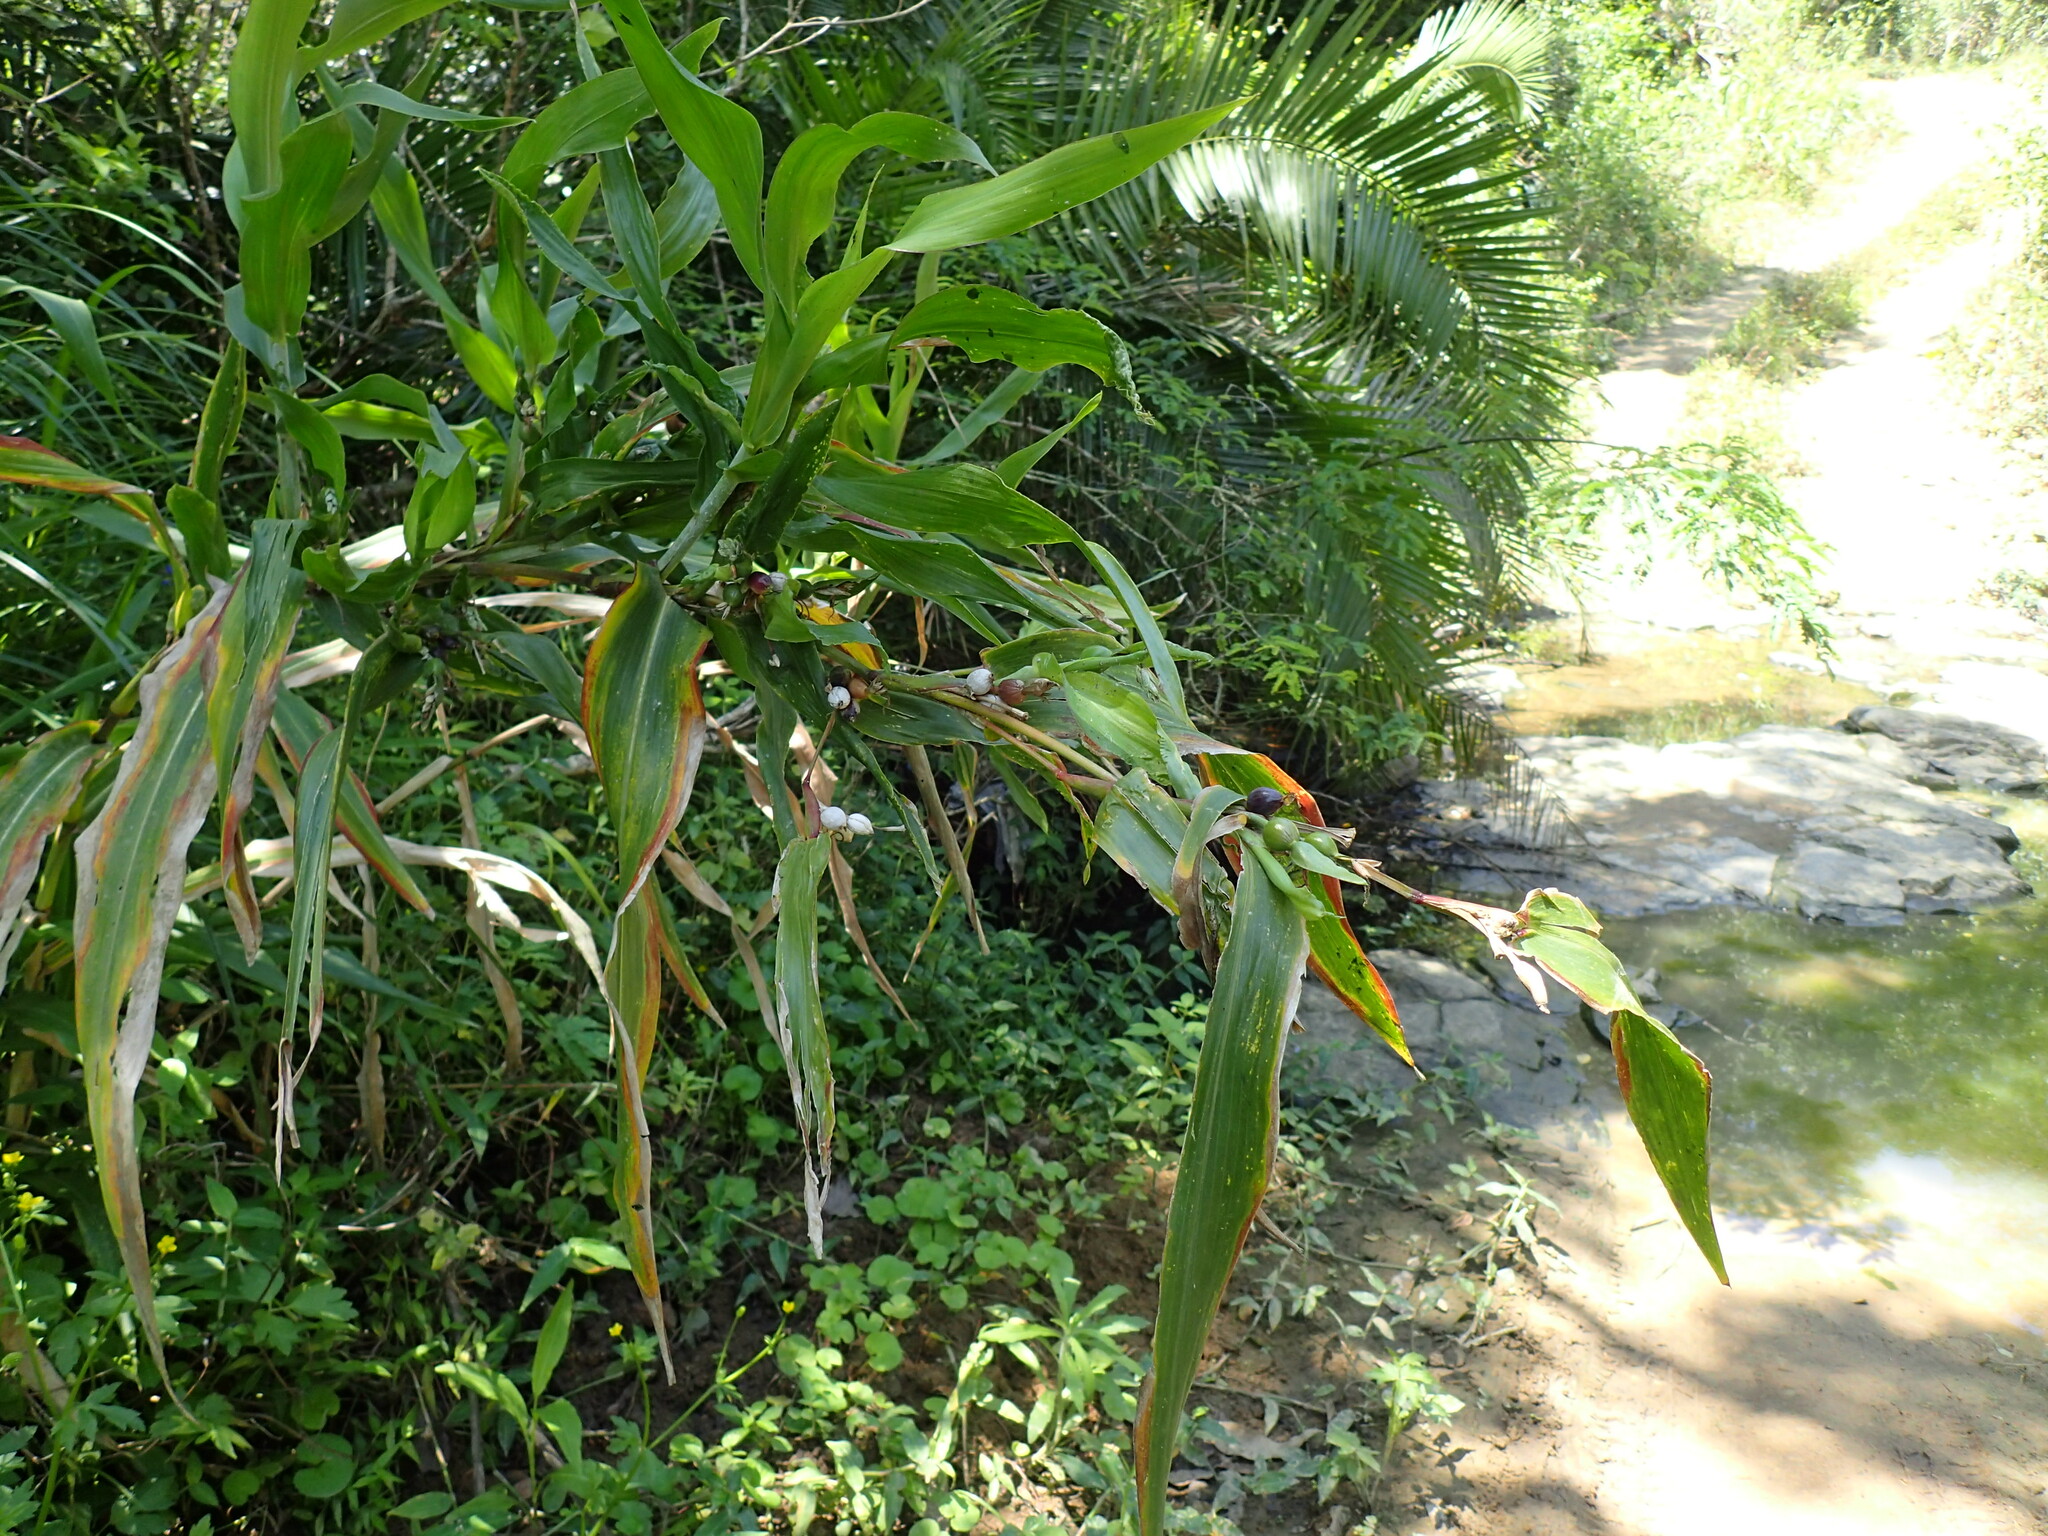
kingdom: Plantae
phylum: Tracheophyta
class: Liliopsida
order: Poales
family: Poaceae
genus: Coix
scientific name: Coix lacryma-jobi
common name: Job's tears
